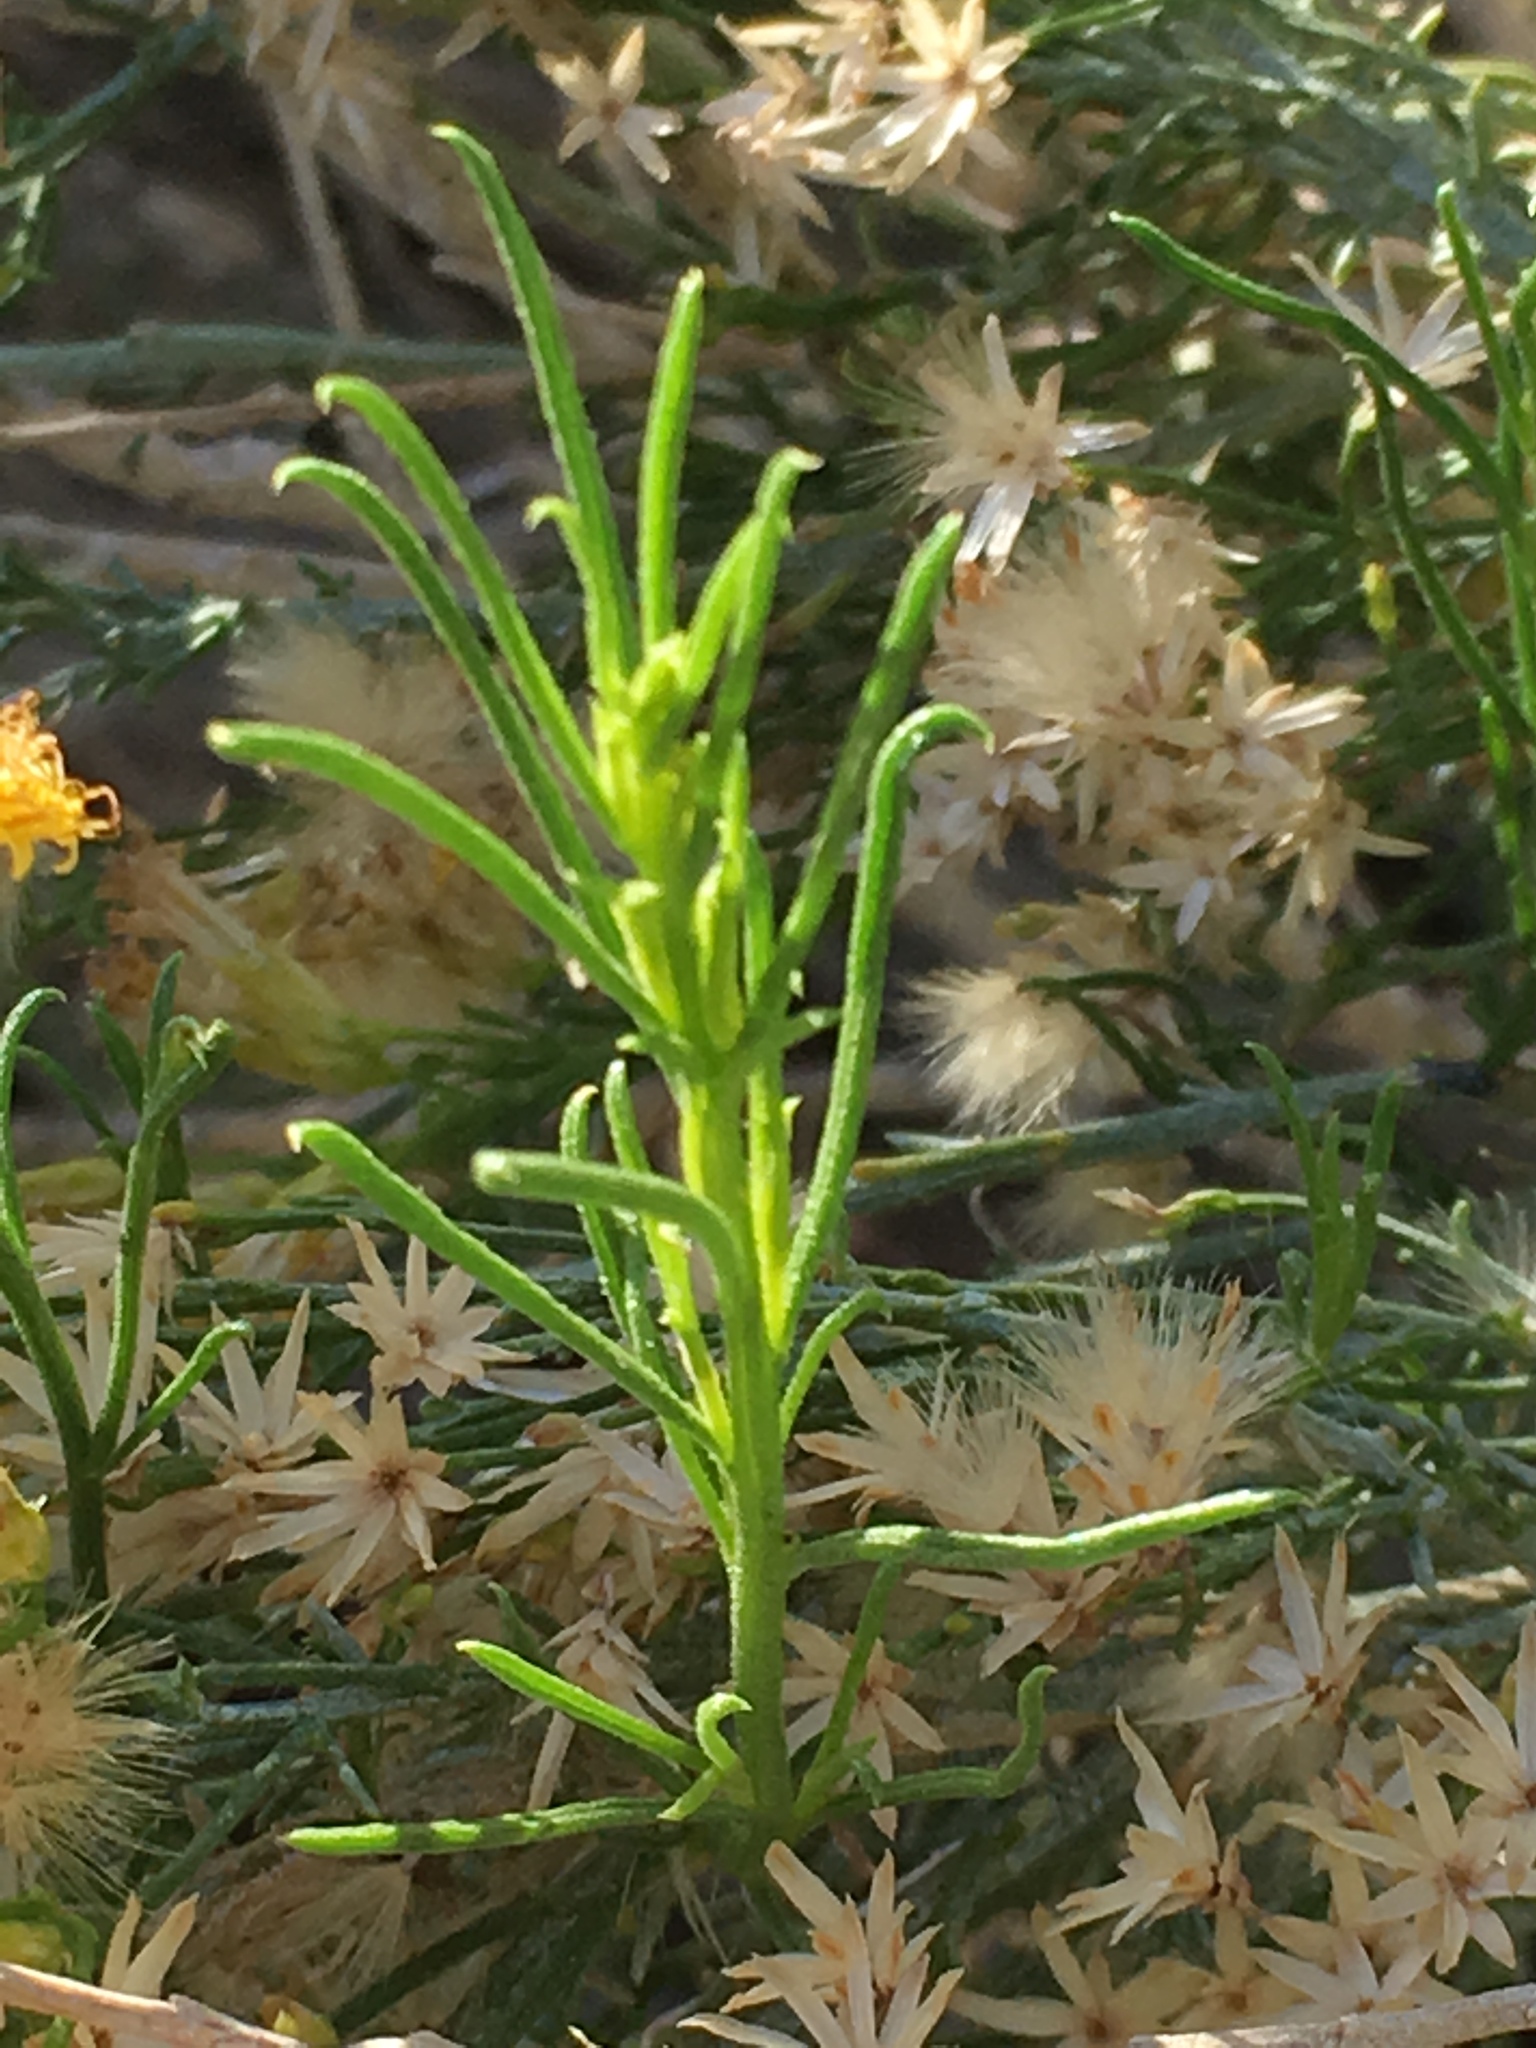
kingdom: Plantae
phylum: Tracheophyta
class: Magnoliopsida
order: Asterales
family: Asteraceae
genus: Ericameria
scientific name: Ericameria paniculata
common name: Punctate rabbitbrush
